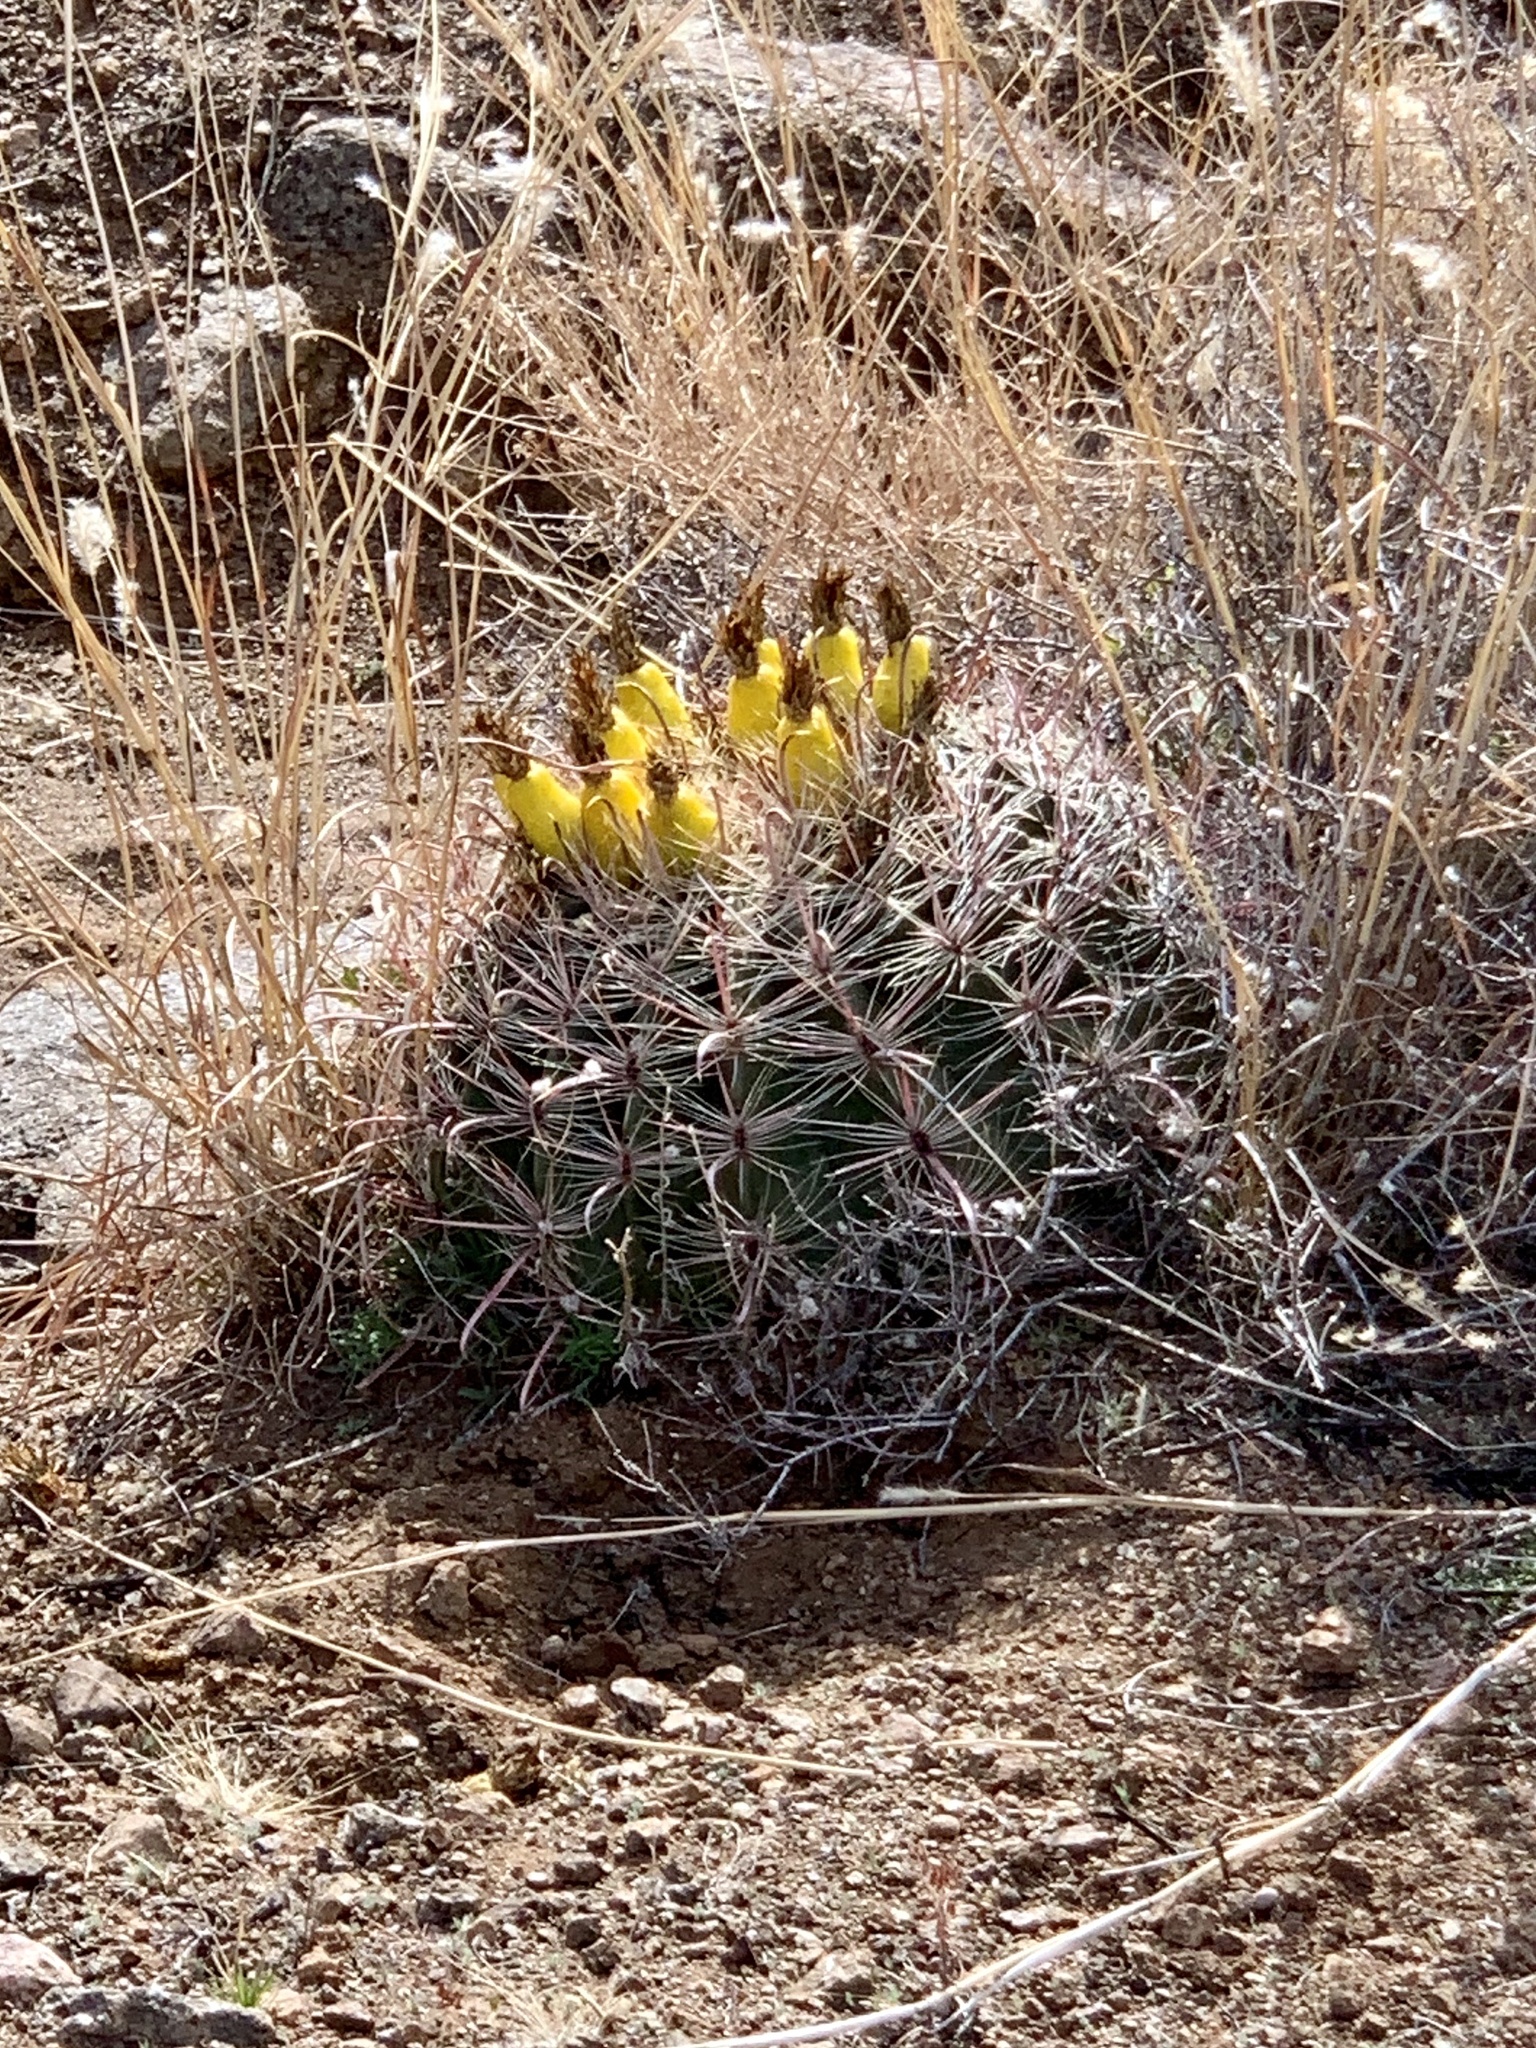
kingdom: Plantae
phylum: Tracheophyta
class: Magnoliopsida
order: Caryophyllales
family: Cactaceae
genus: Ferocactus
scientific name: Ferocactus wislizeni
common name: Candy barrel cactus
